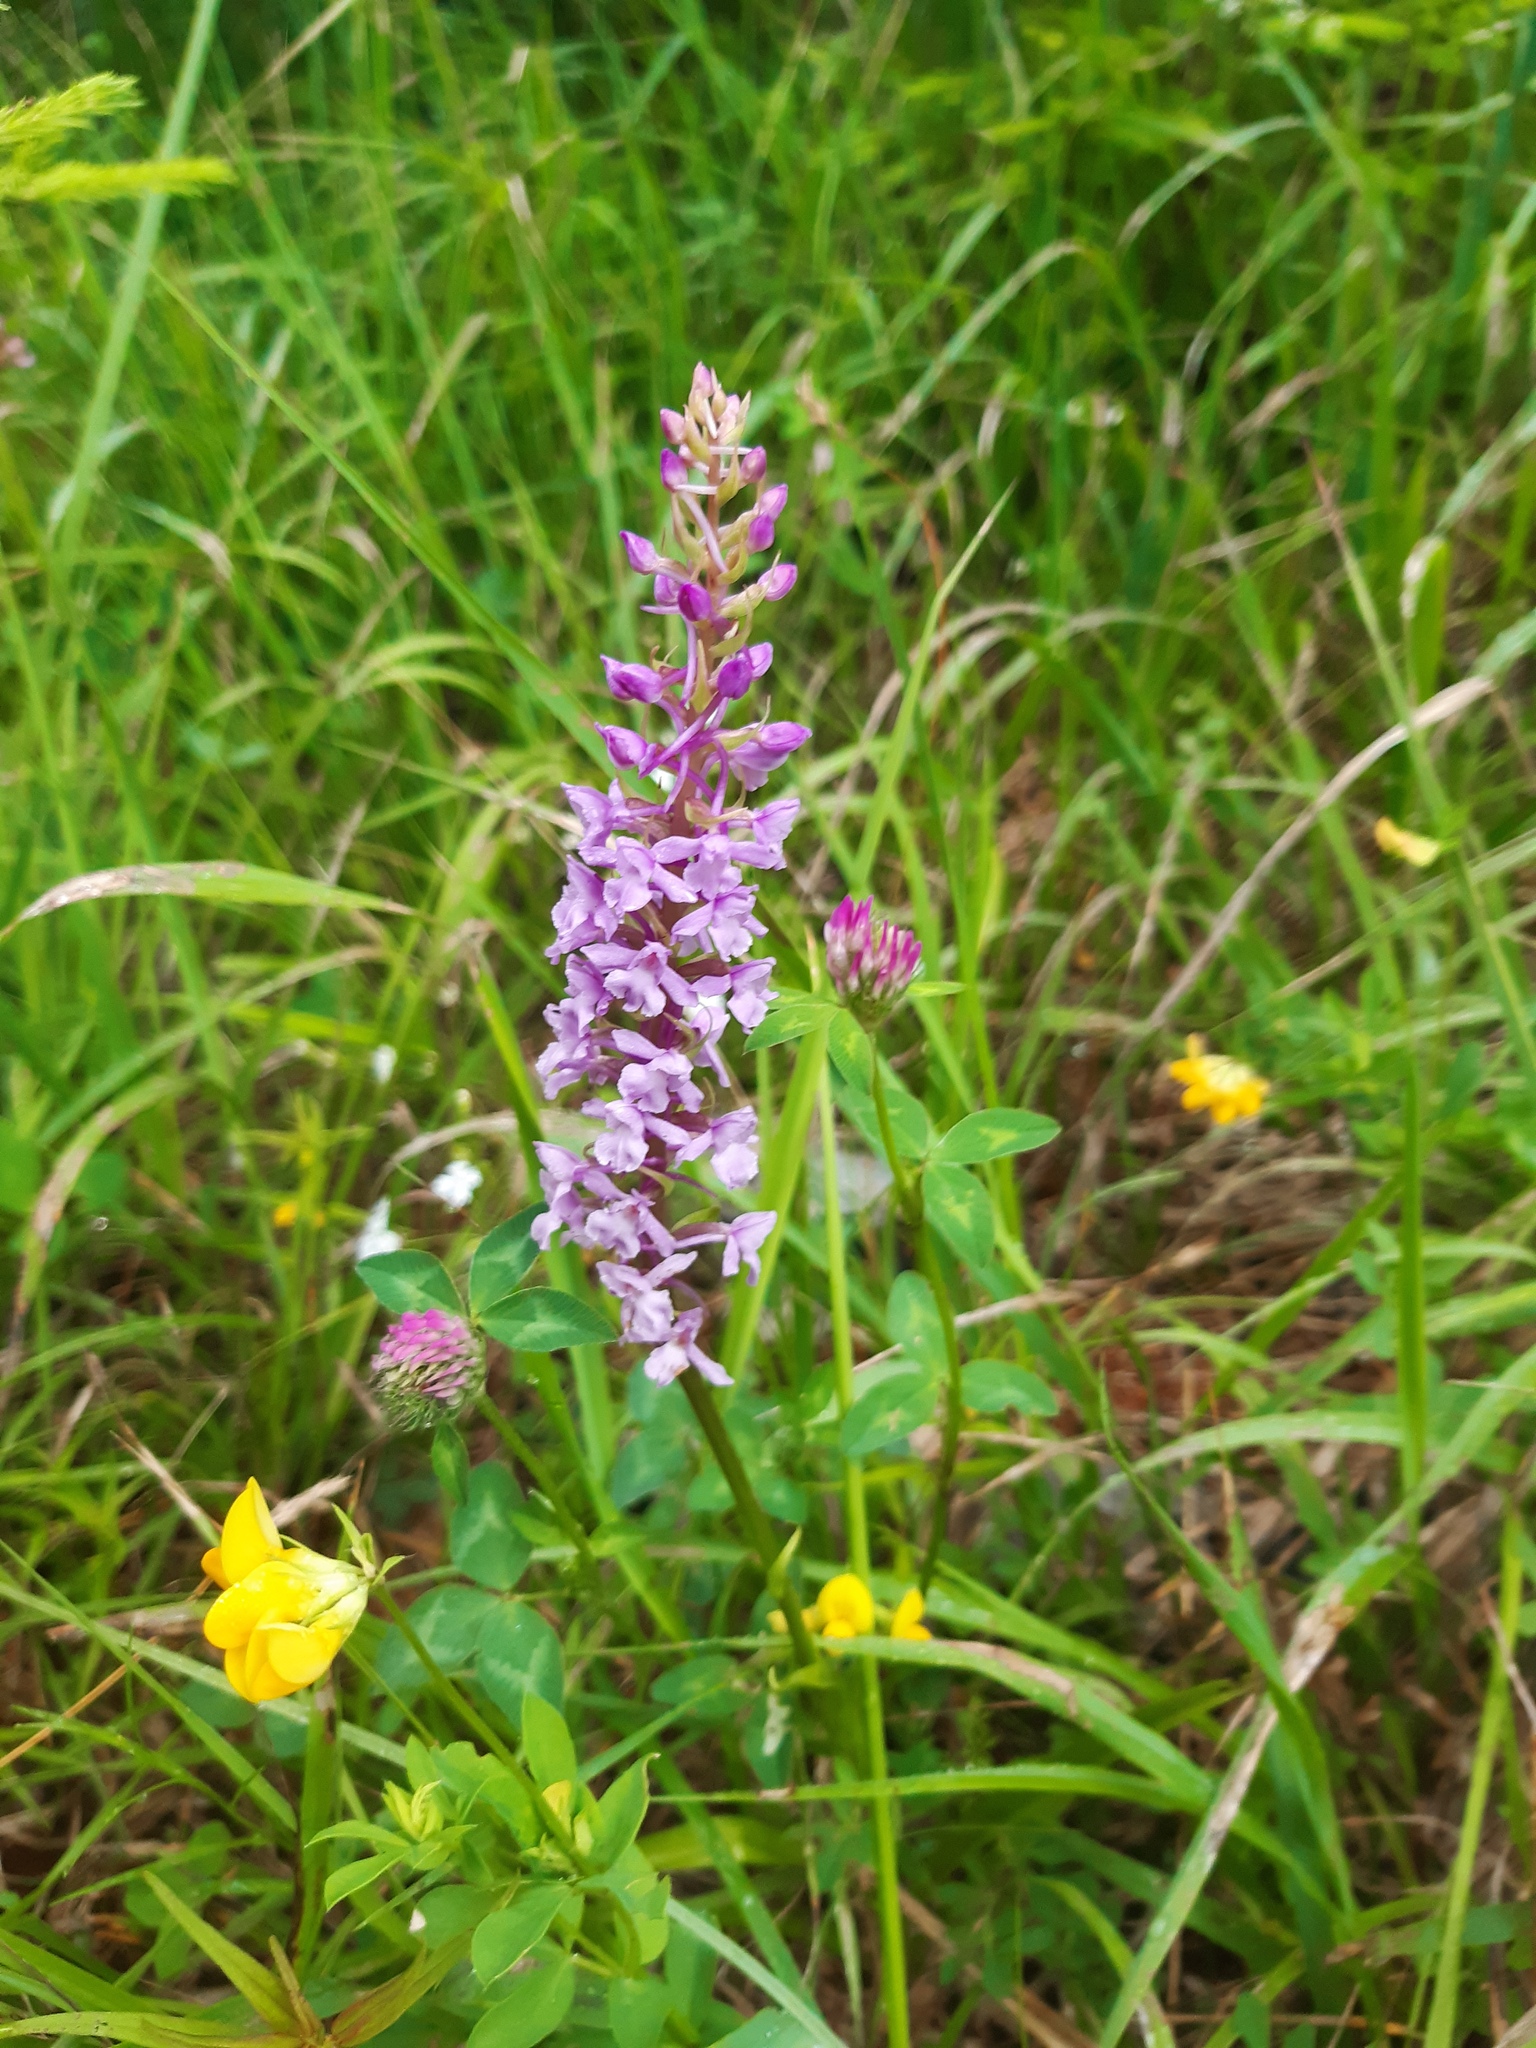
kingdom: Plantae
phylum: Tracheophyta
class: Liliopsida
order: Asparagales
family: Orchidaceae
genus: Gymnadenia
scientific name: Gymnadenia conopsea
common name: Fragrant orchid
